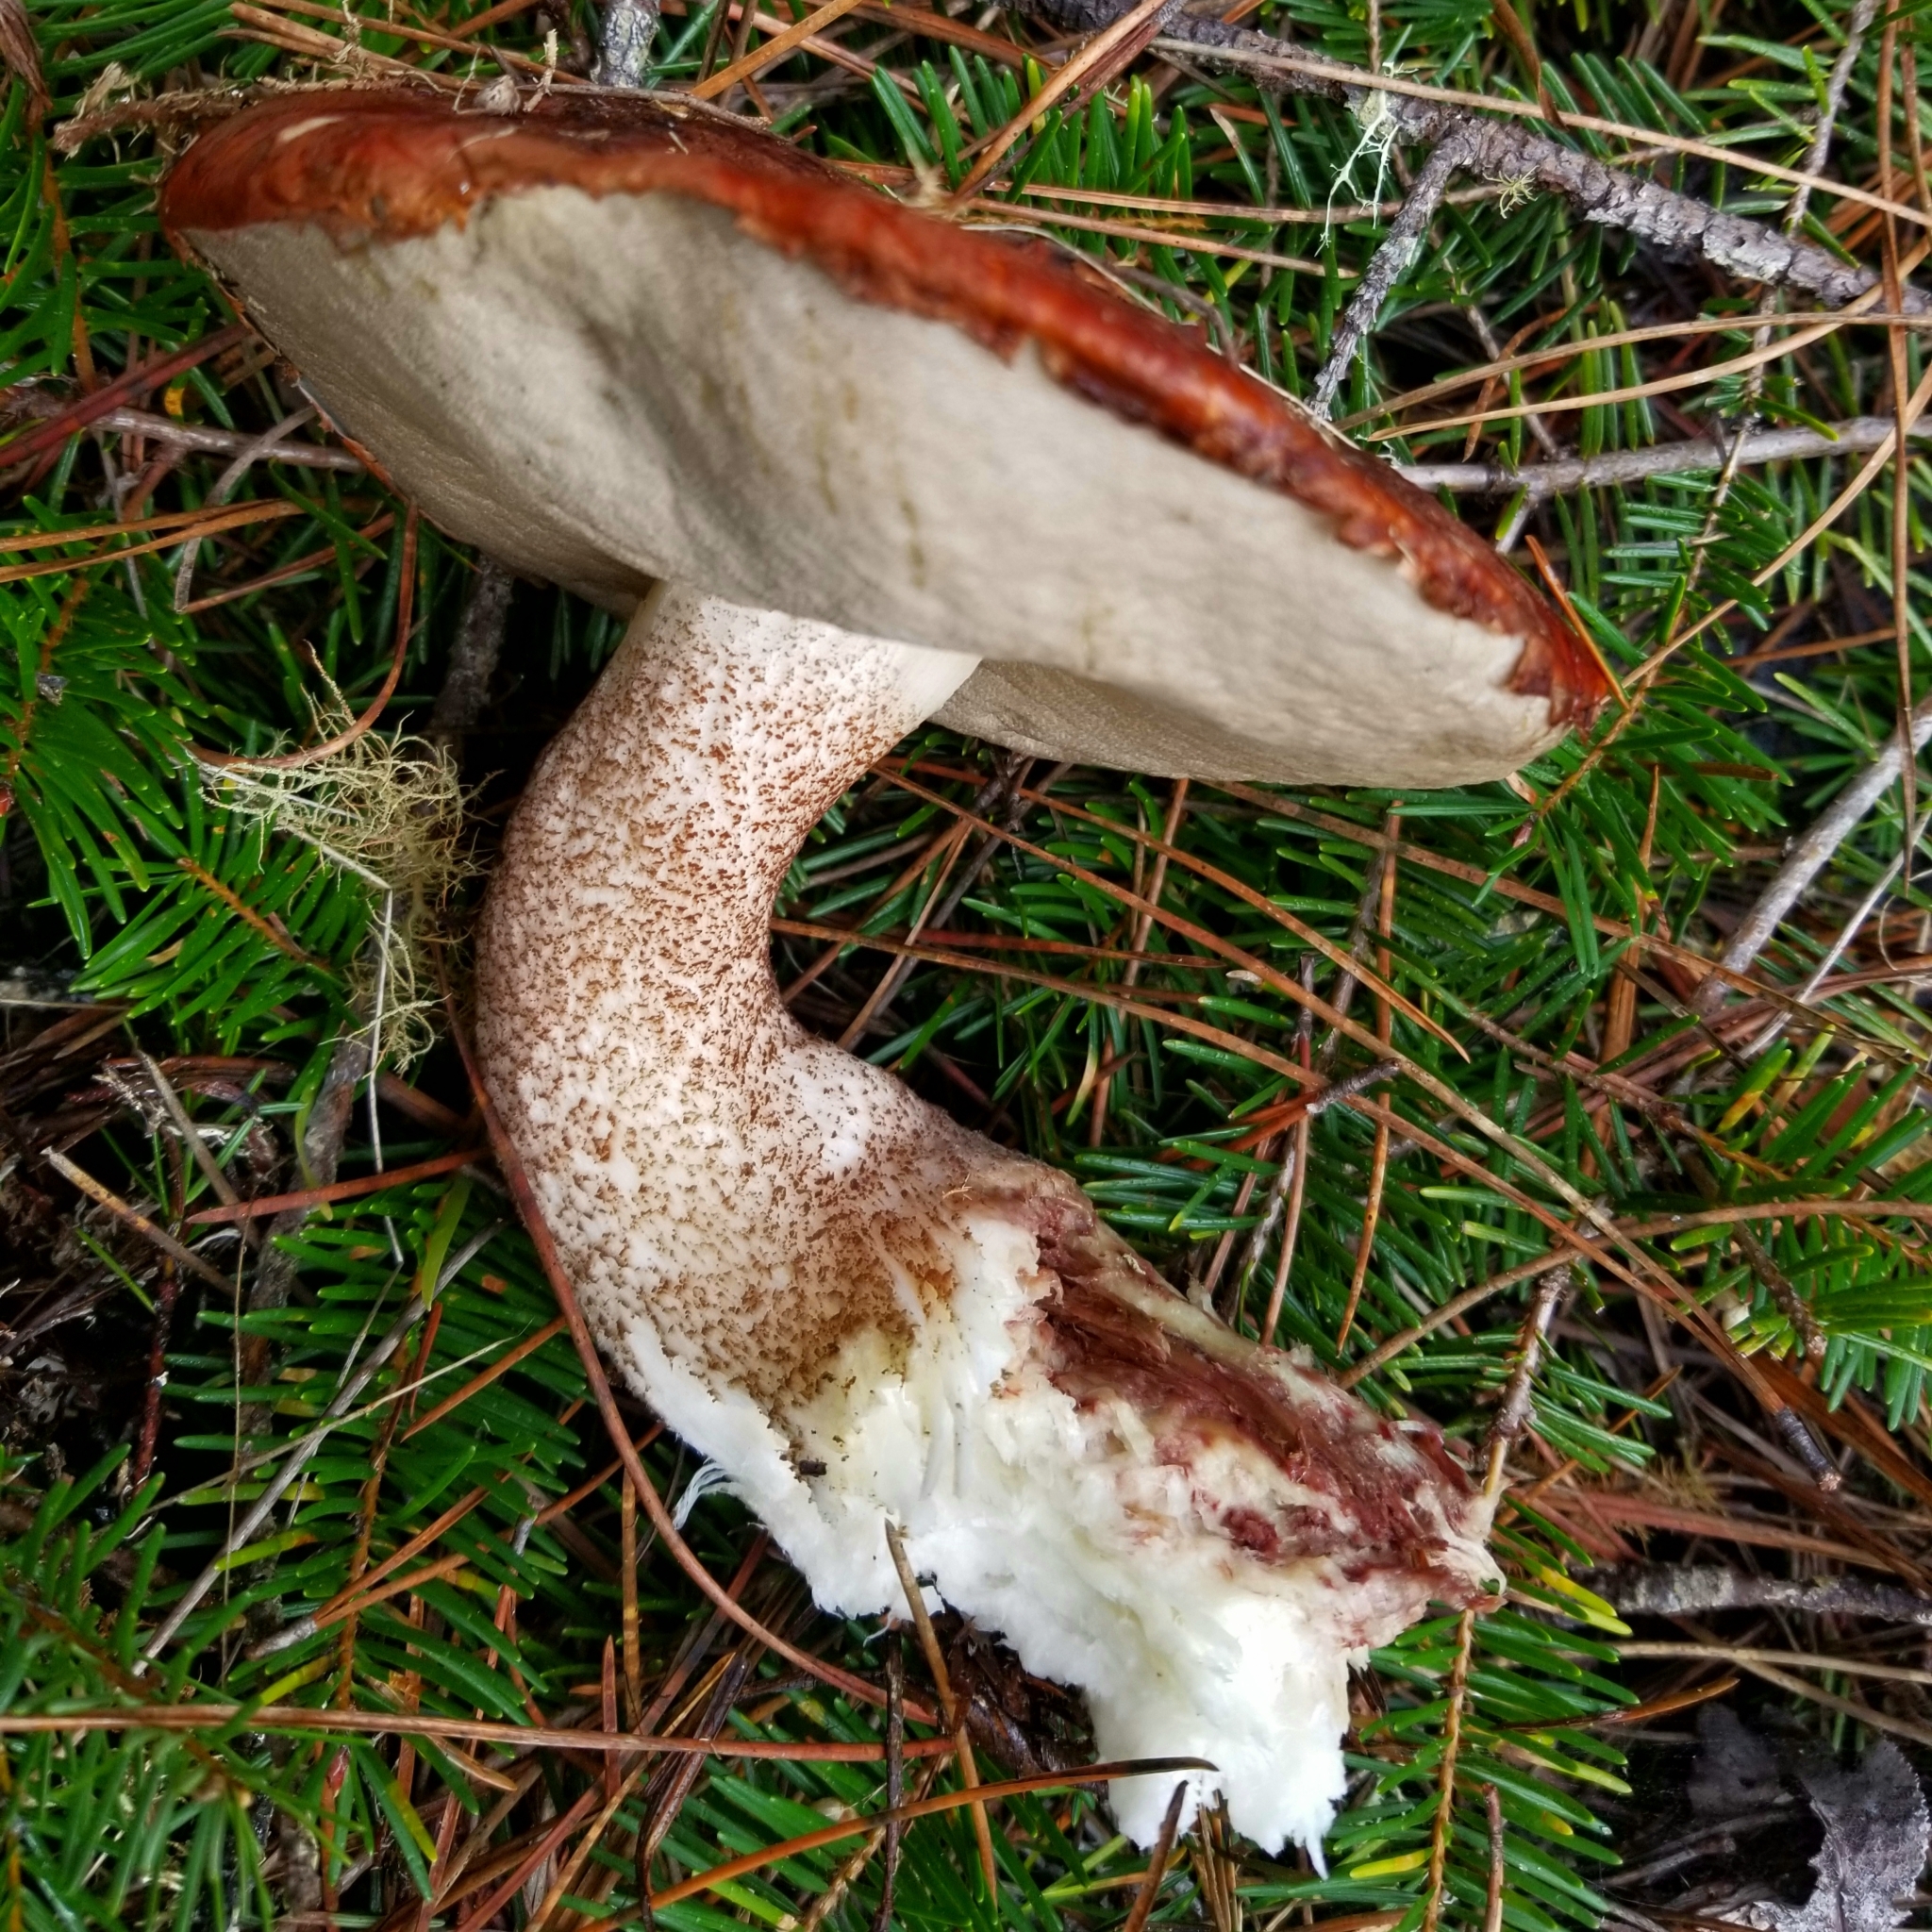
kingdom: Fungi
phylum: Basidiomycota
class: Agaricomycetes
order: Boletales
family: Boletaceae
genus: Leccinum
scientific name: Leccinum manzanitae
